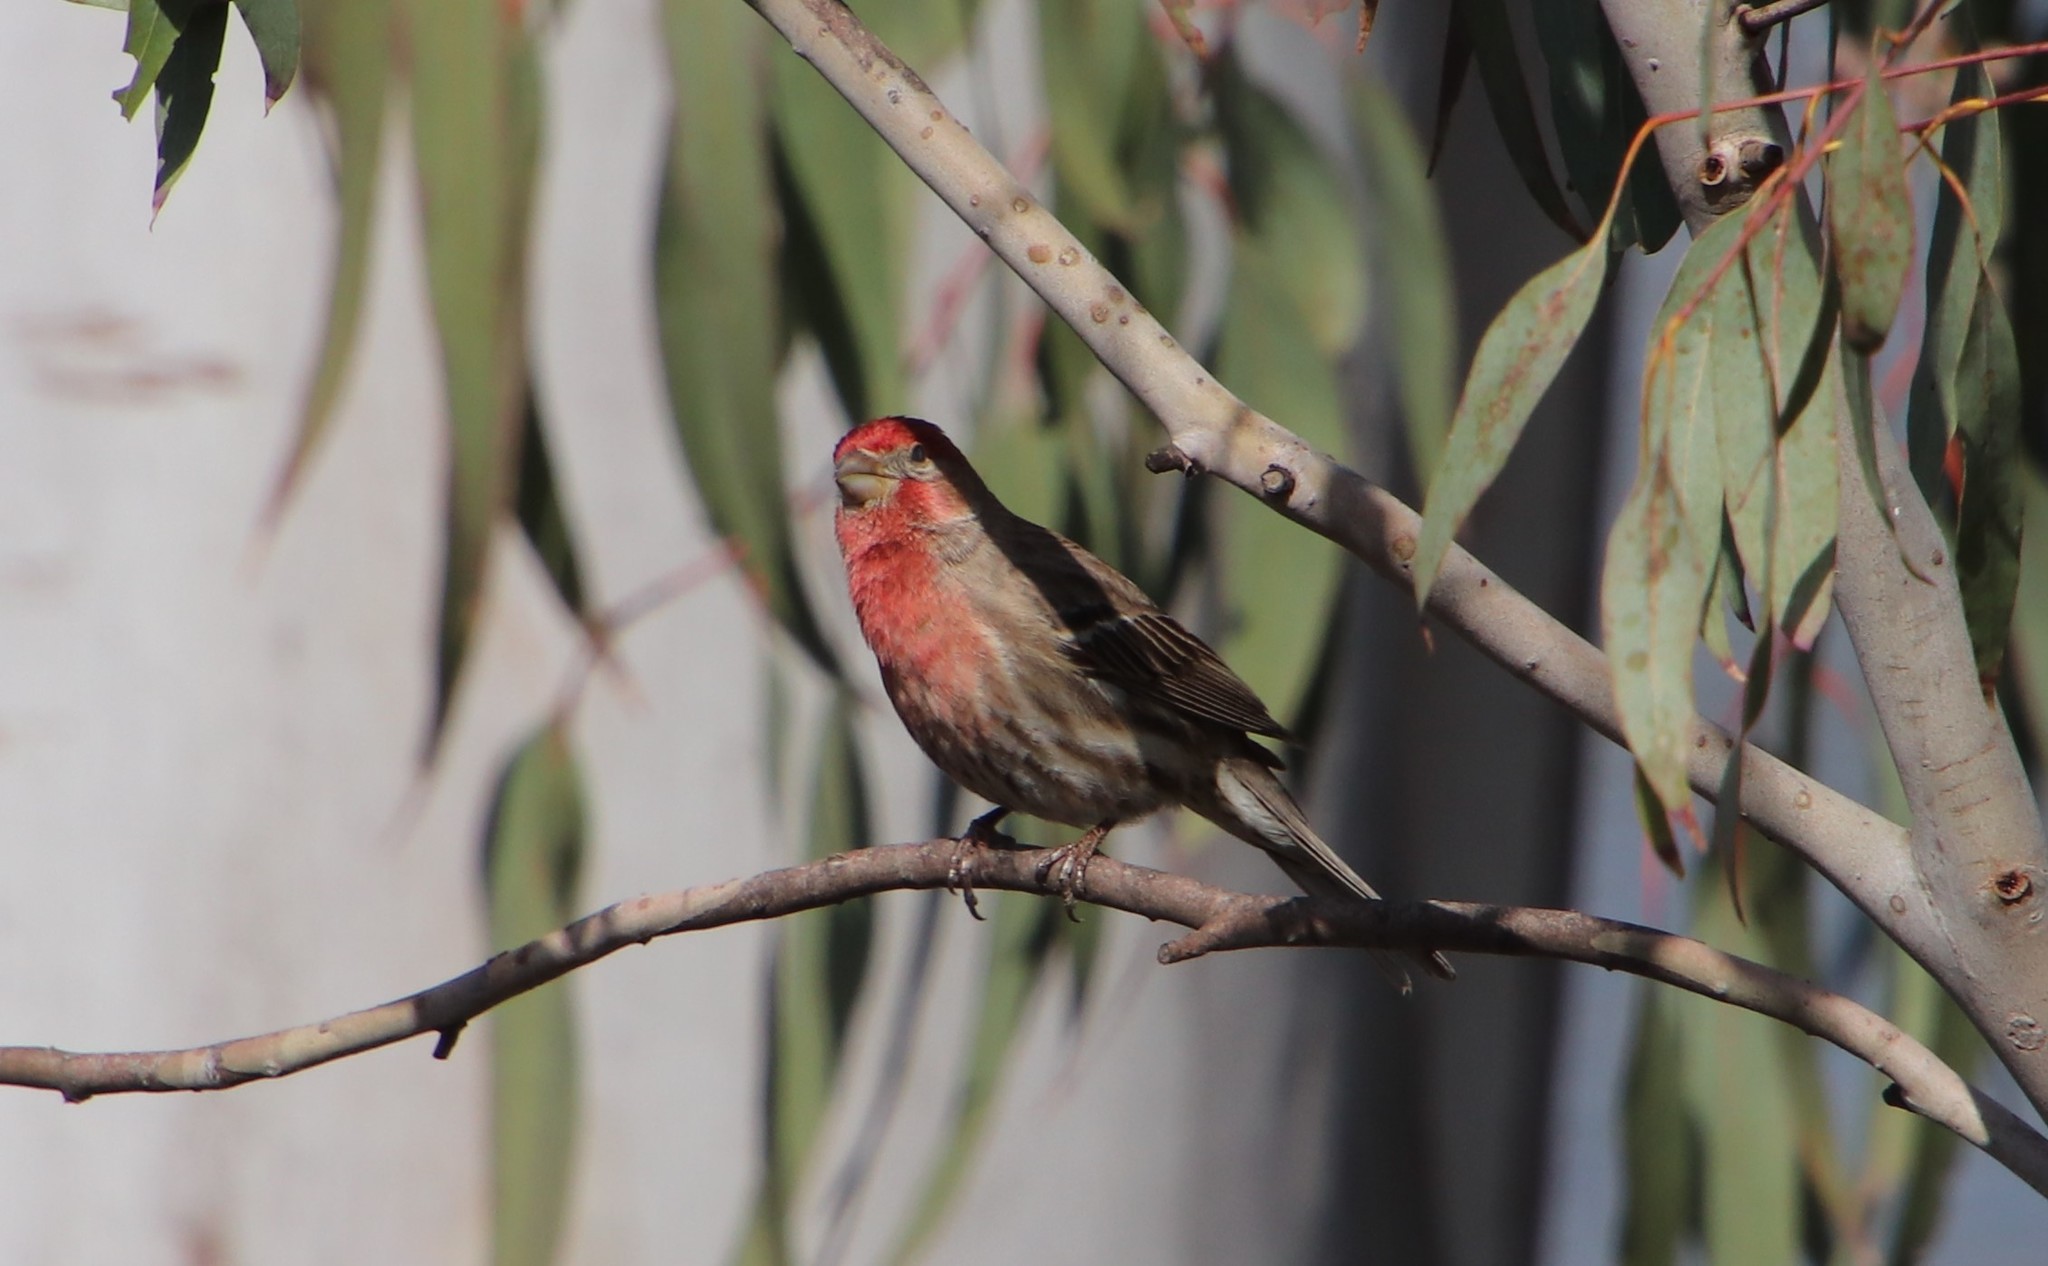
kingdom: Animalia
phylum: Chordata
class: Aves
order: Passeriformes
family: Fringillidae
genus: Haemorhous
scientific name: Haemorhous mexicanus
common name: House finch
